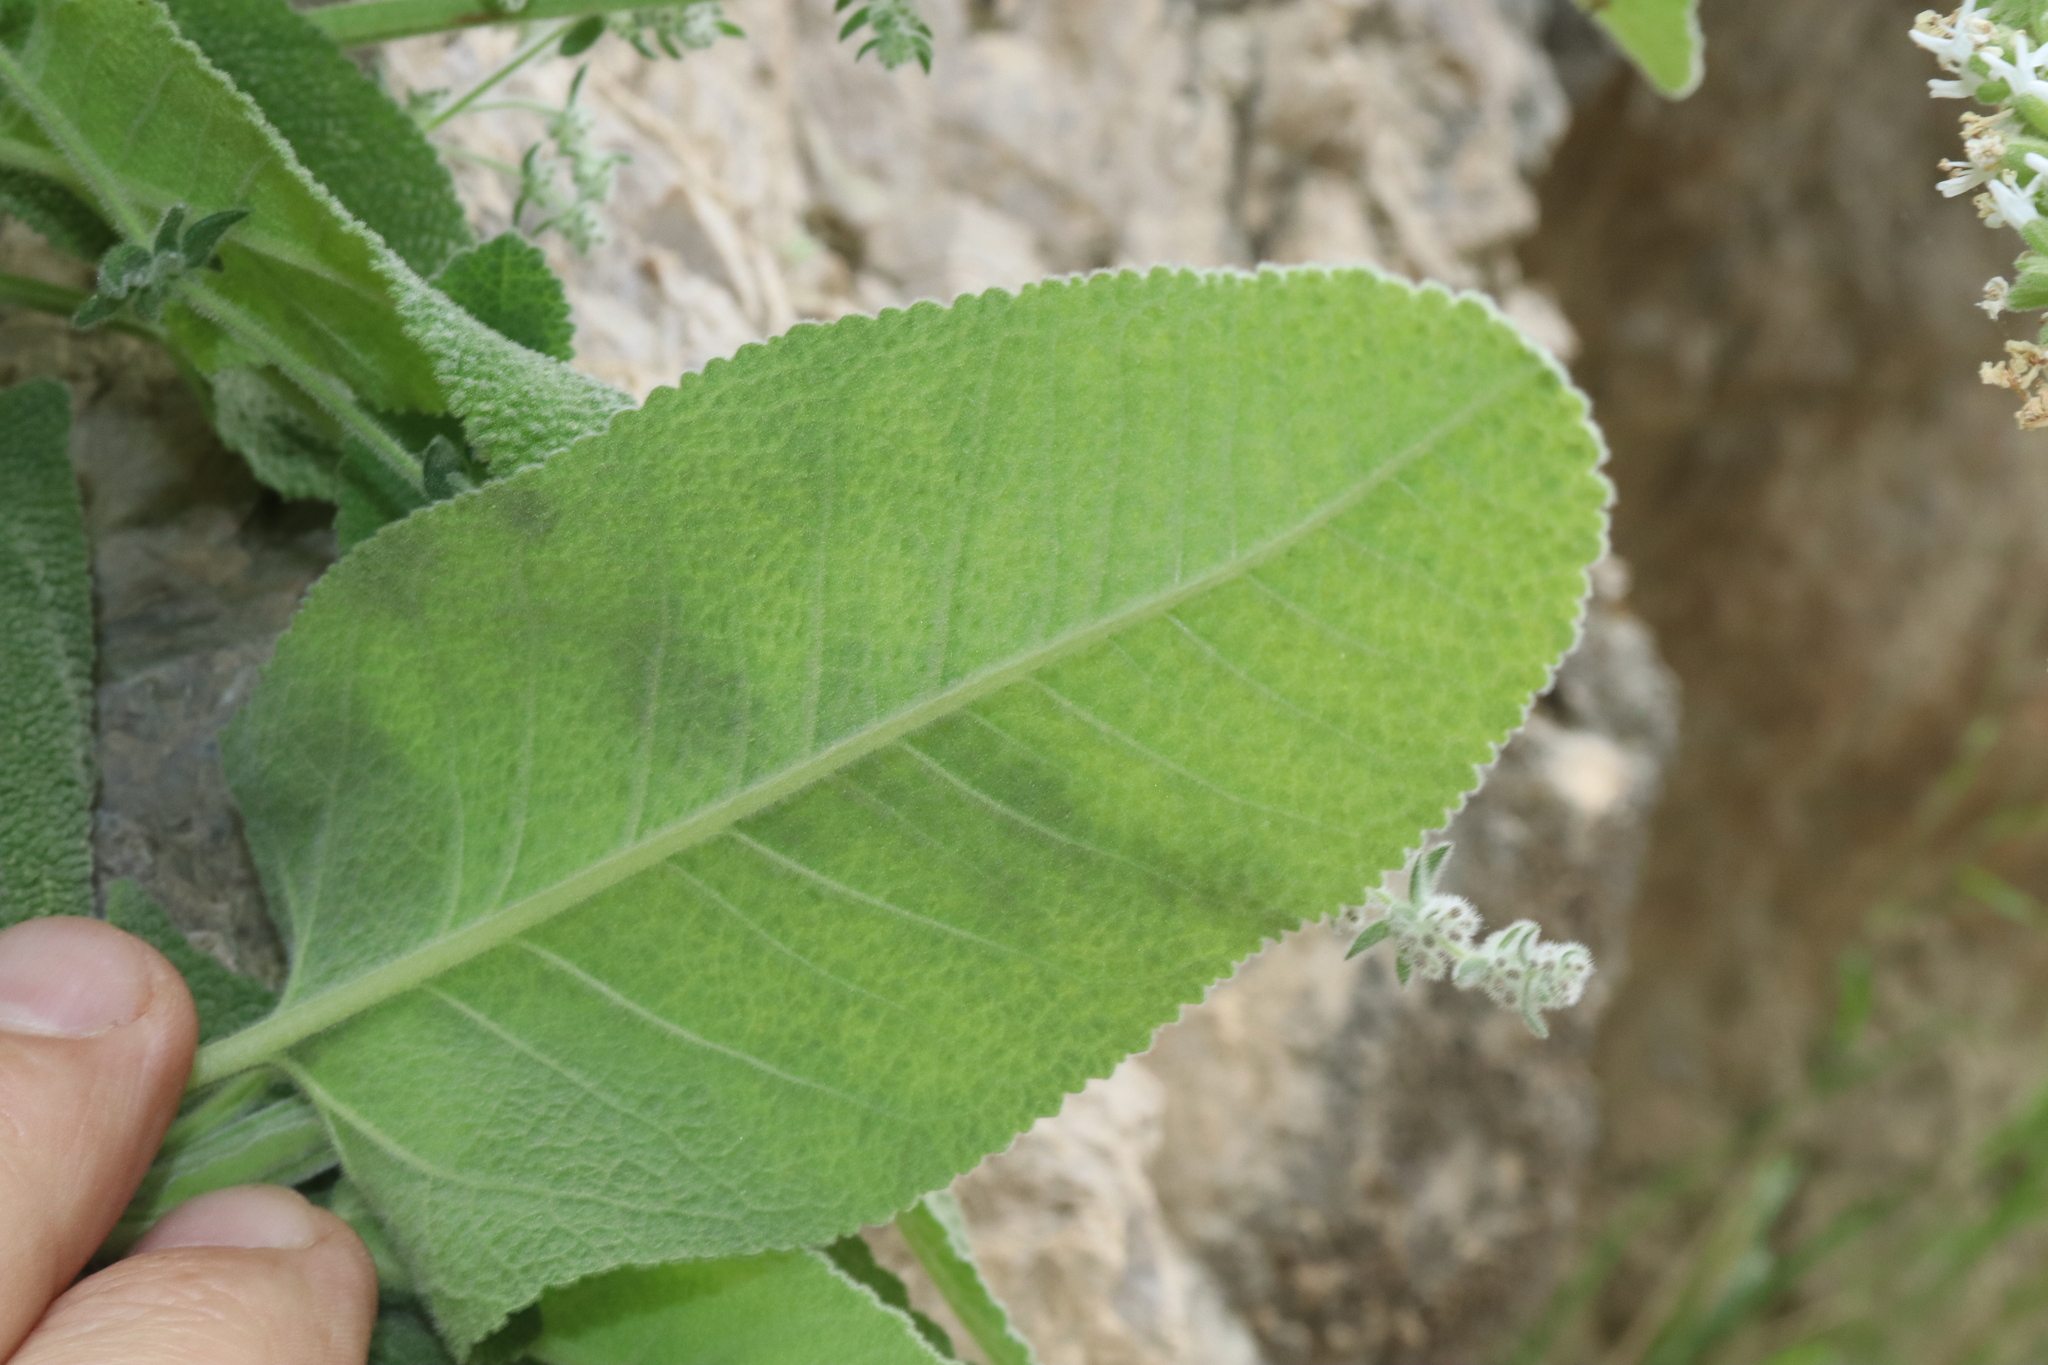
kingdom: Plantae
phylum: Tracheophyta
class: Magnoliopsida
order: Lamiales
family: Lamiaceae
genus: Salvia
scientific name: Salvia dorystaechas
